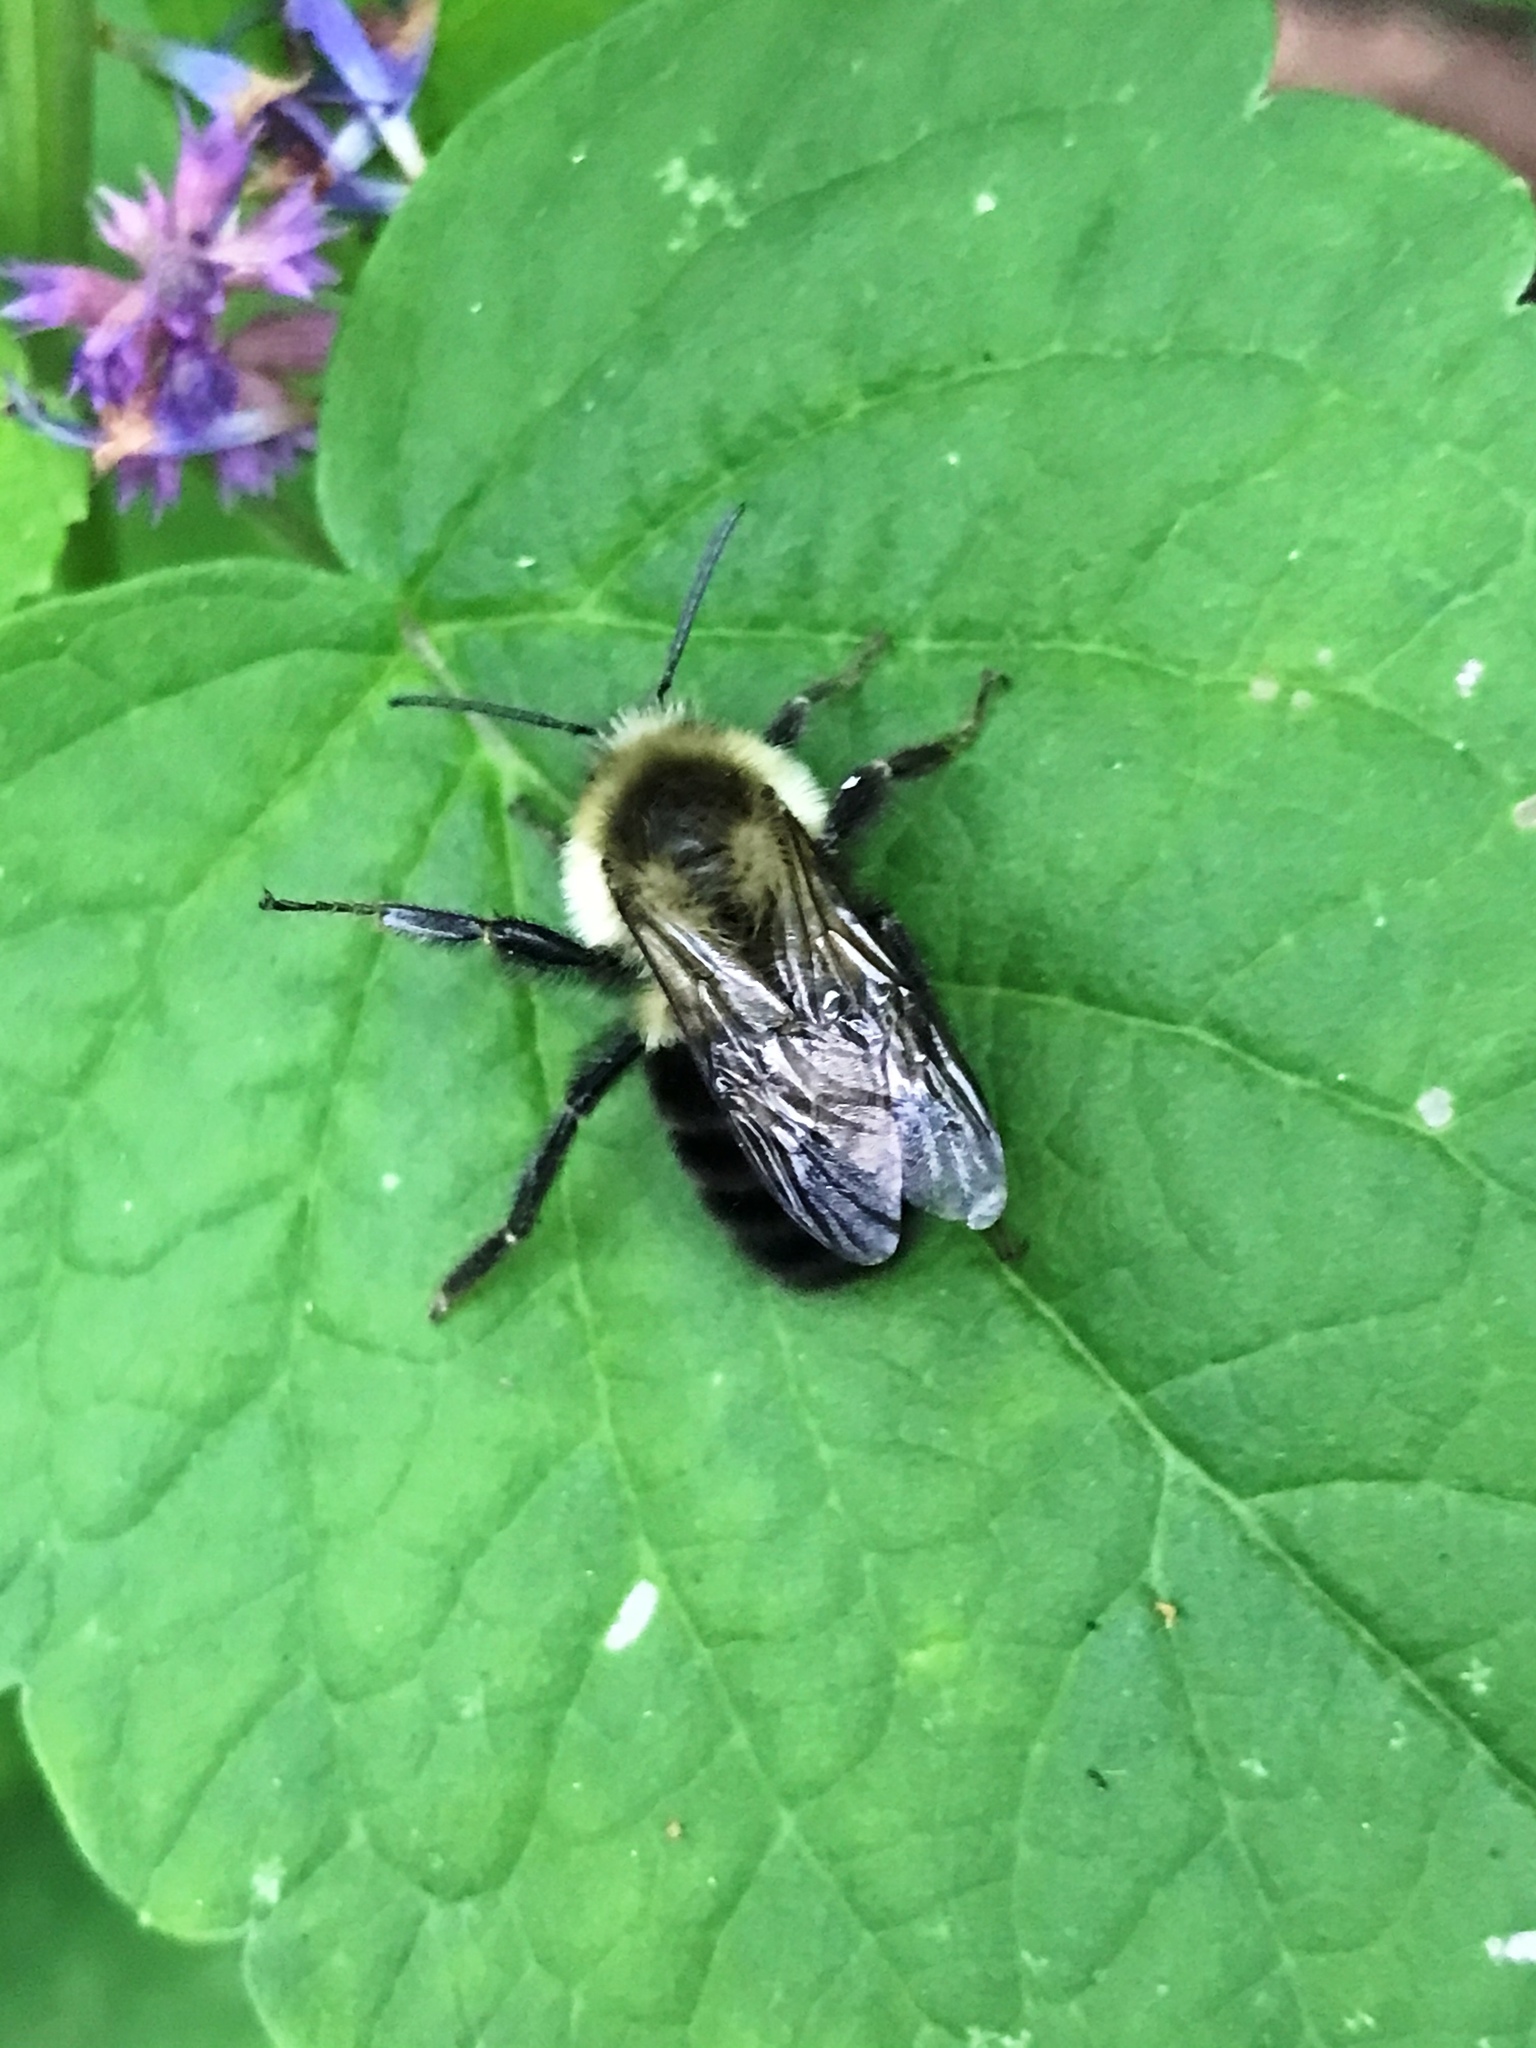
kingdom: Animalia
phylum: Arthropoda
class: Insecta
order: Hymenoptera
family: Apidae
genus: Bombus
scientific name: Bombus impatiens
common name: Common eastern bumble bee
